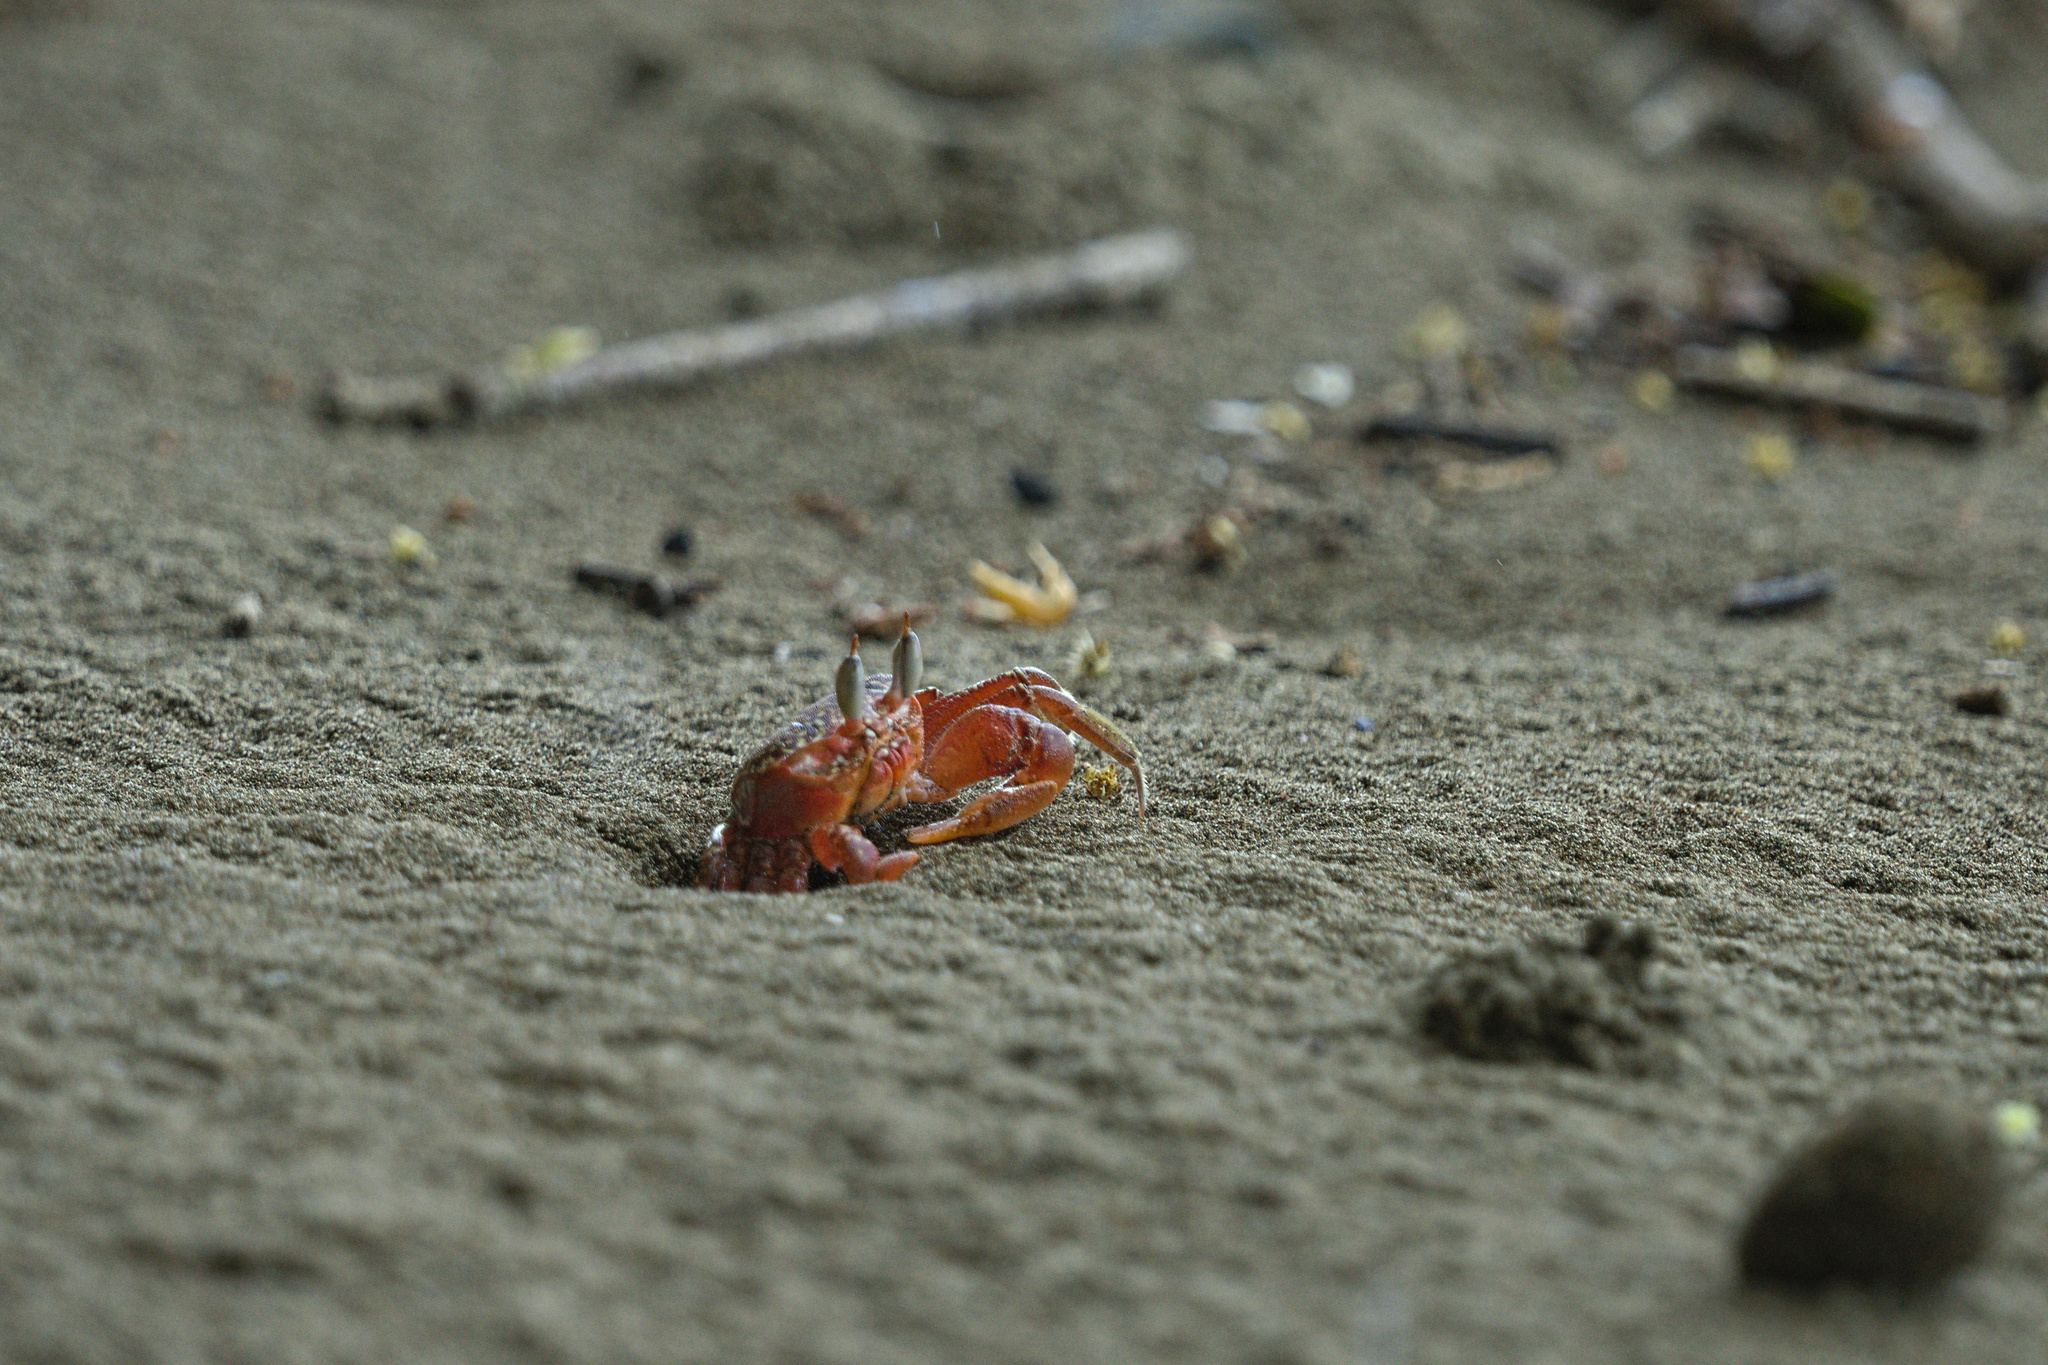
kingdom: Animalia
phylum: Arthropoda
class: Malacostraca
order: Decapoda
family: Ocypodidae
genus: Ocypode
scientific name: Ocypode gaudichaudii
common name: Pacific ghost crab
